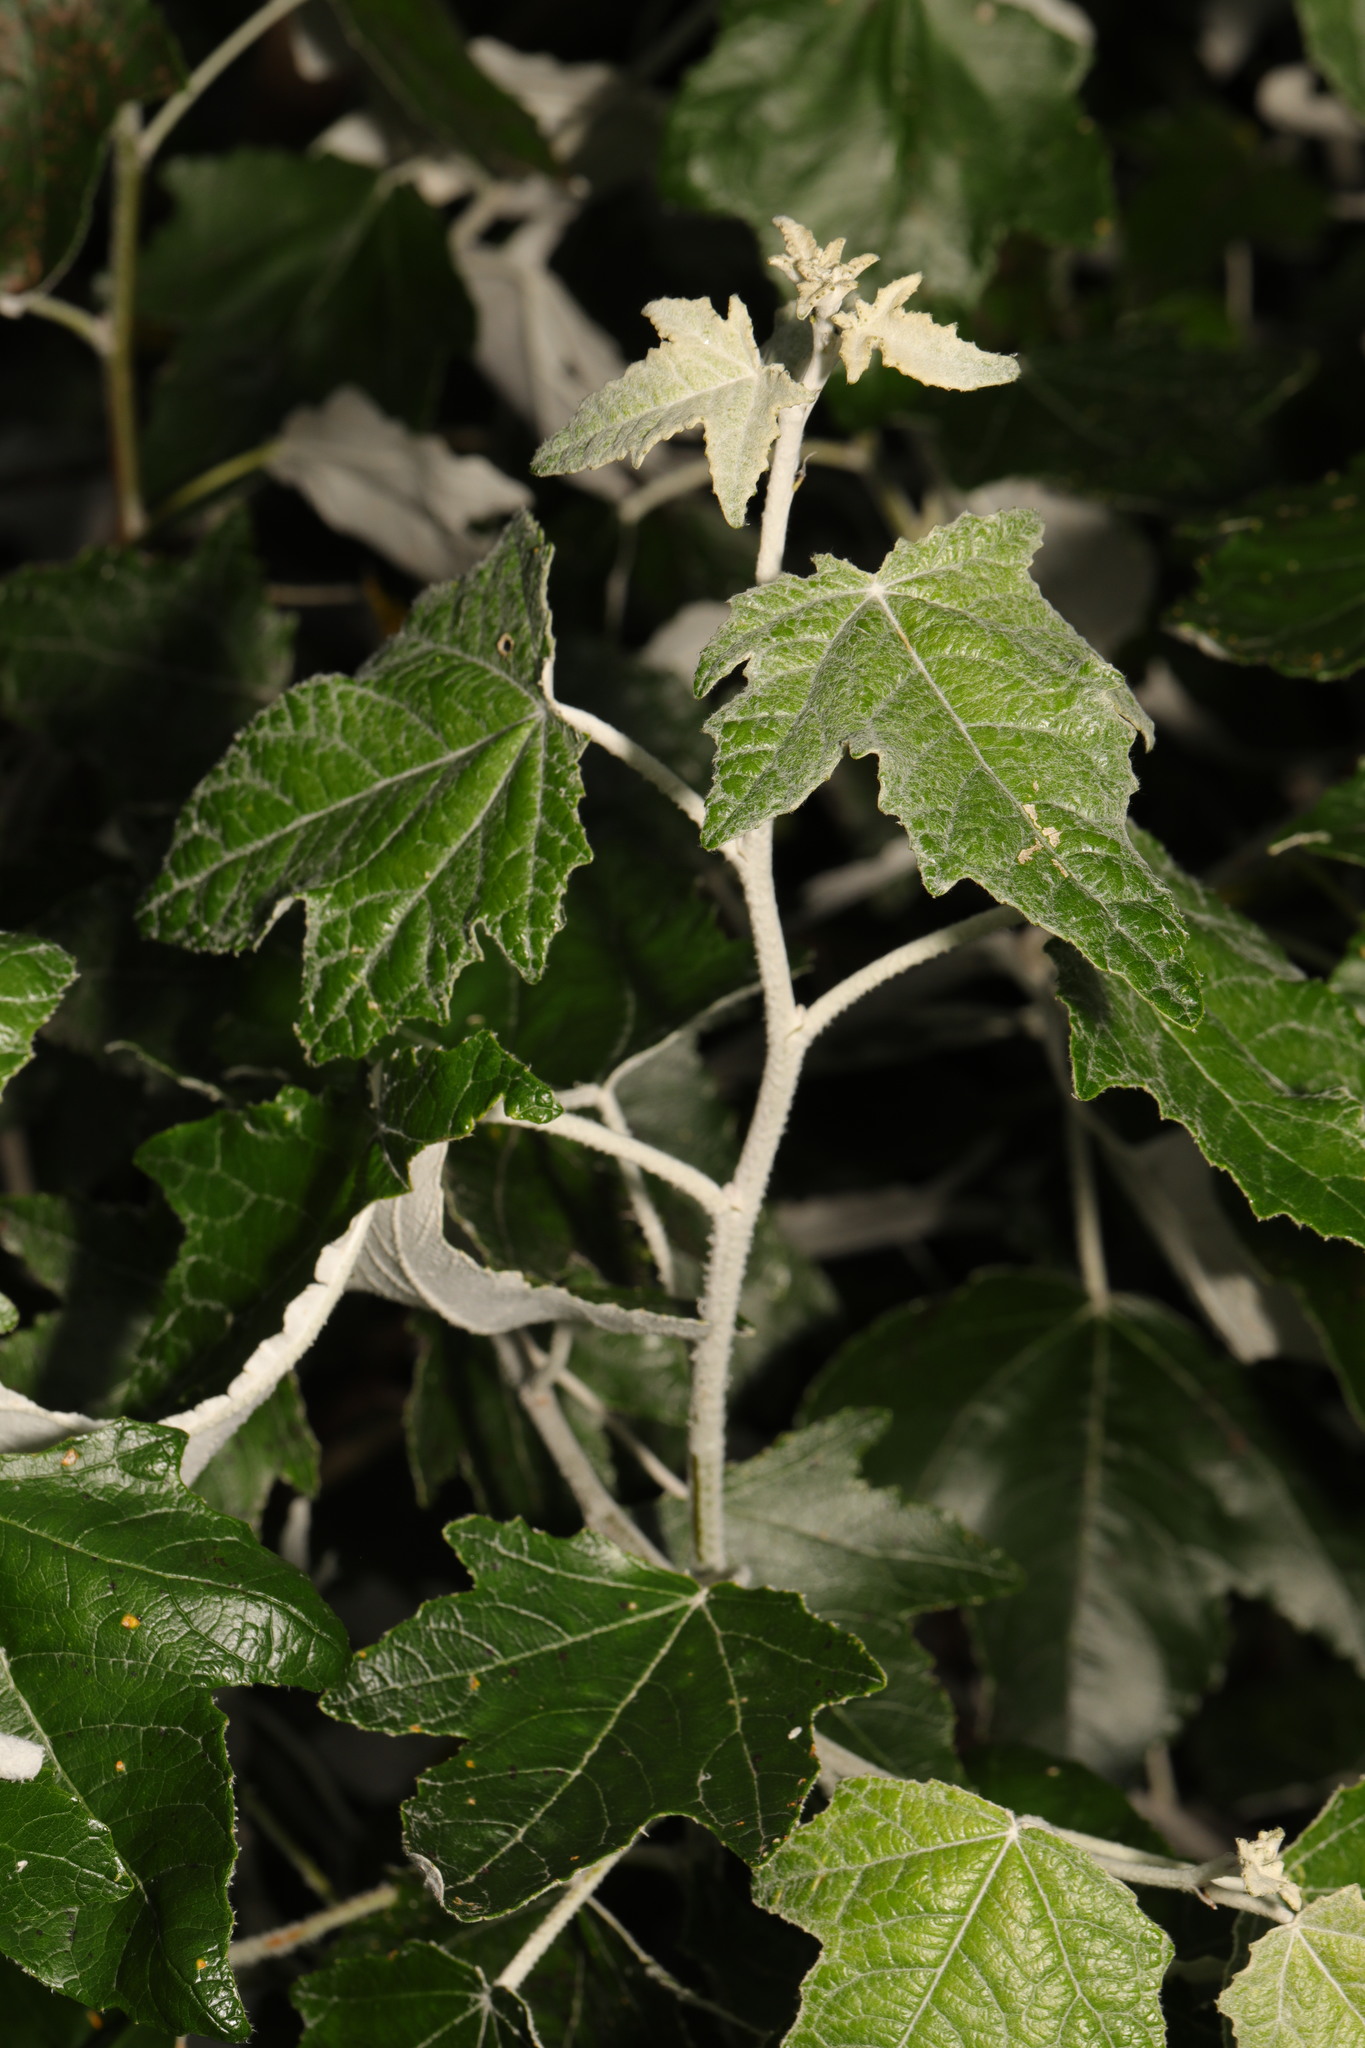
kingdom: Plantae
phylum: Tracheophyta
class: Magnoliopsida
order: Malpighiales
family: Salicaceae
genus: Populus
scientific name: Populus alba
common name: White poplar
